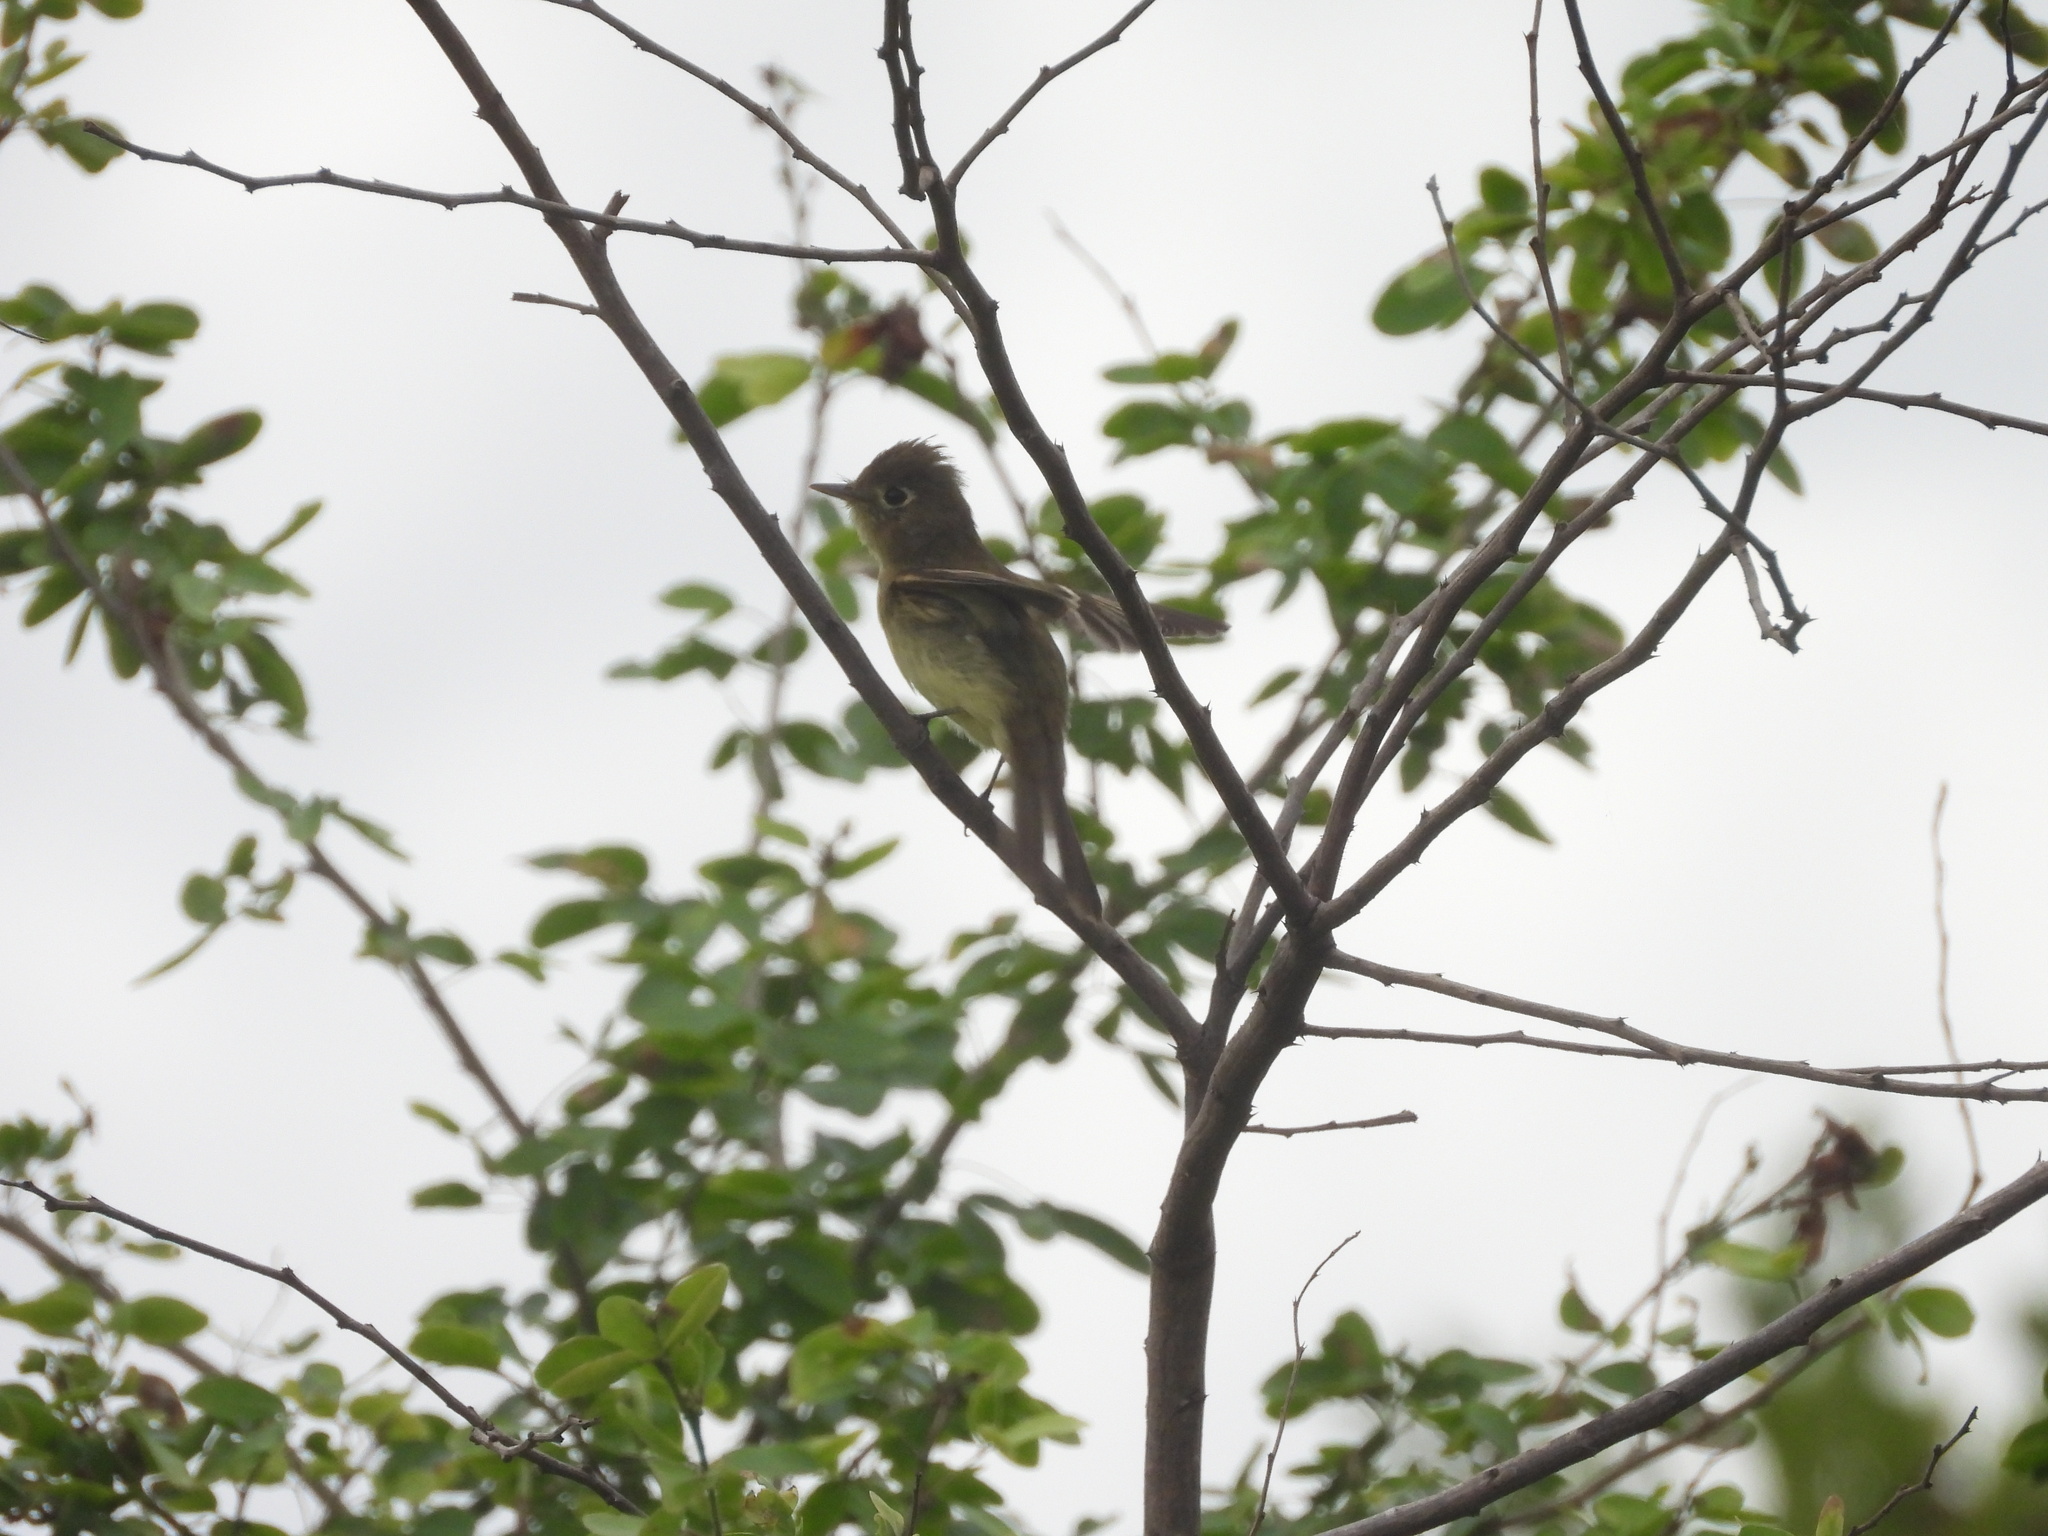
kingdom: Animalia
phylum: Chordata
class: Aves
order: Passeriformes
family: Tyrannidae
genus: Empidonax
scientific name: Empidonax difficilis
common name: Pacific-slope flycatcher
